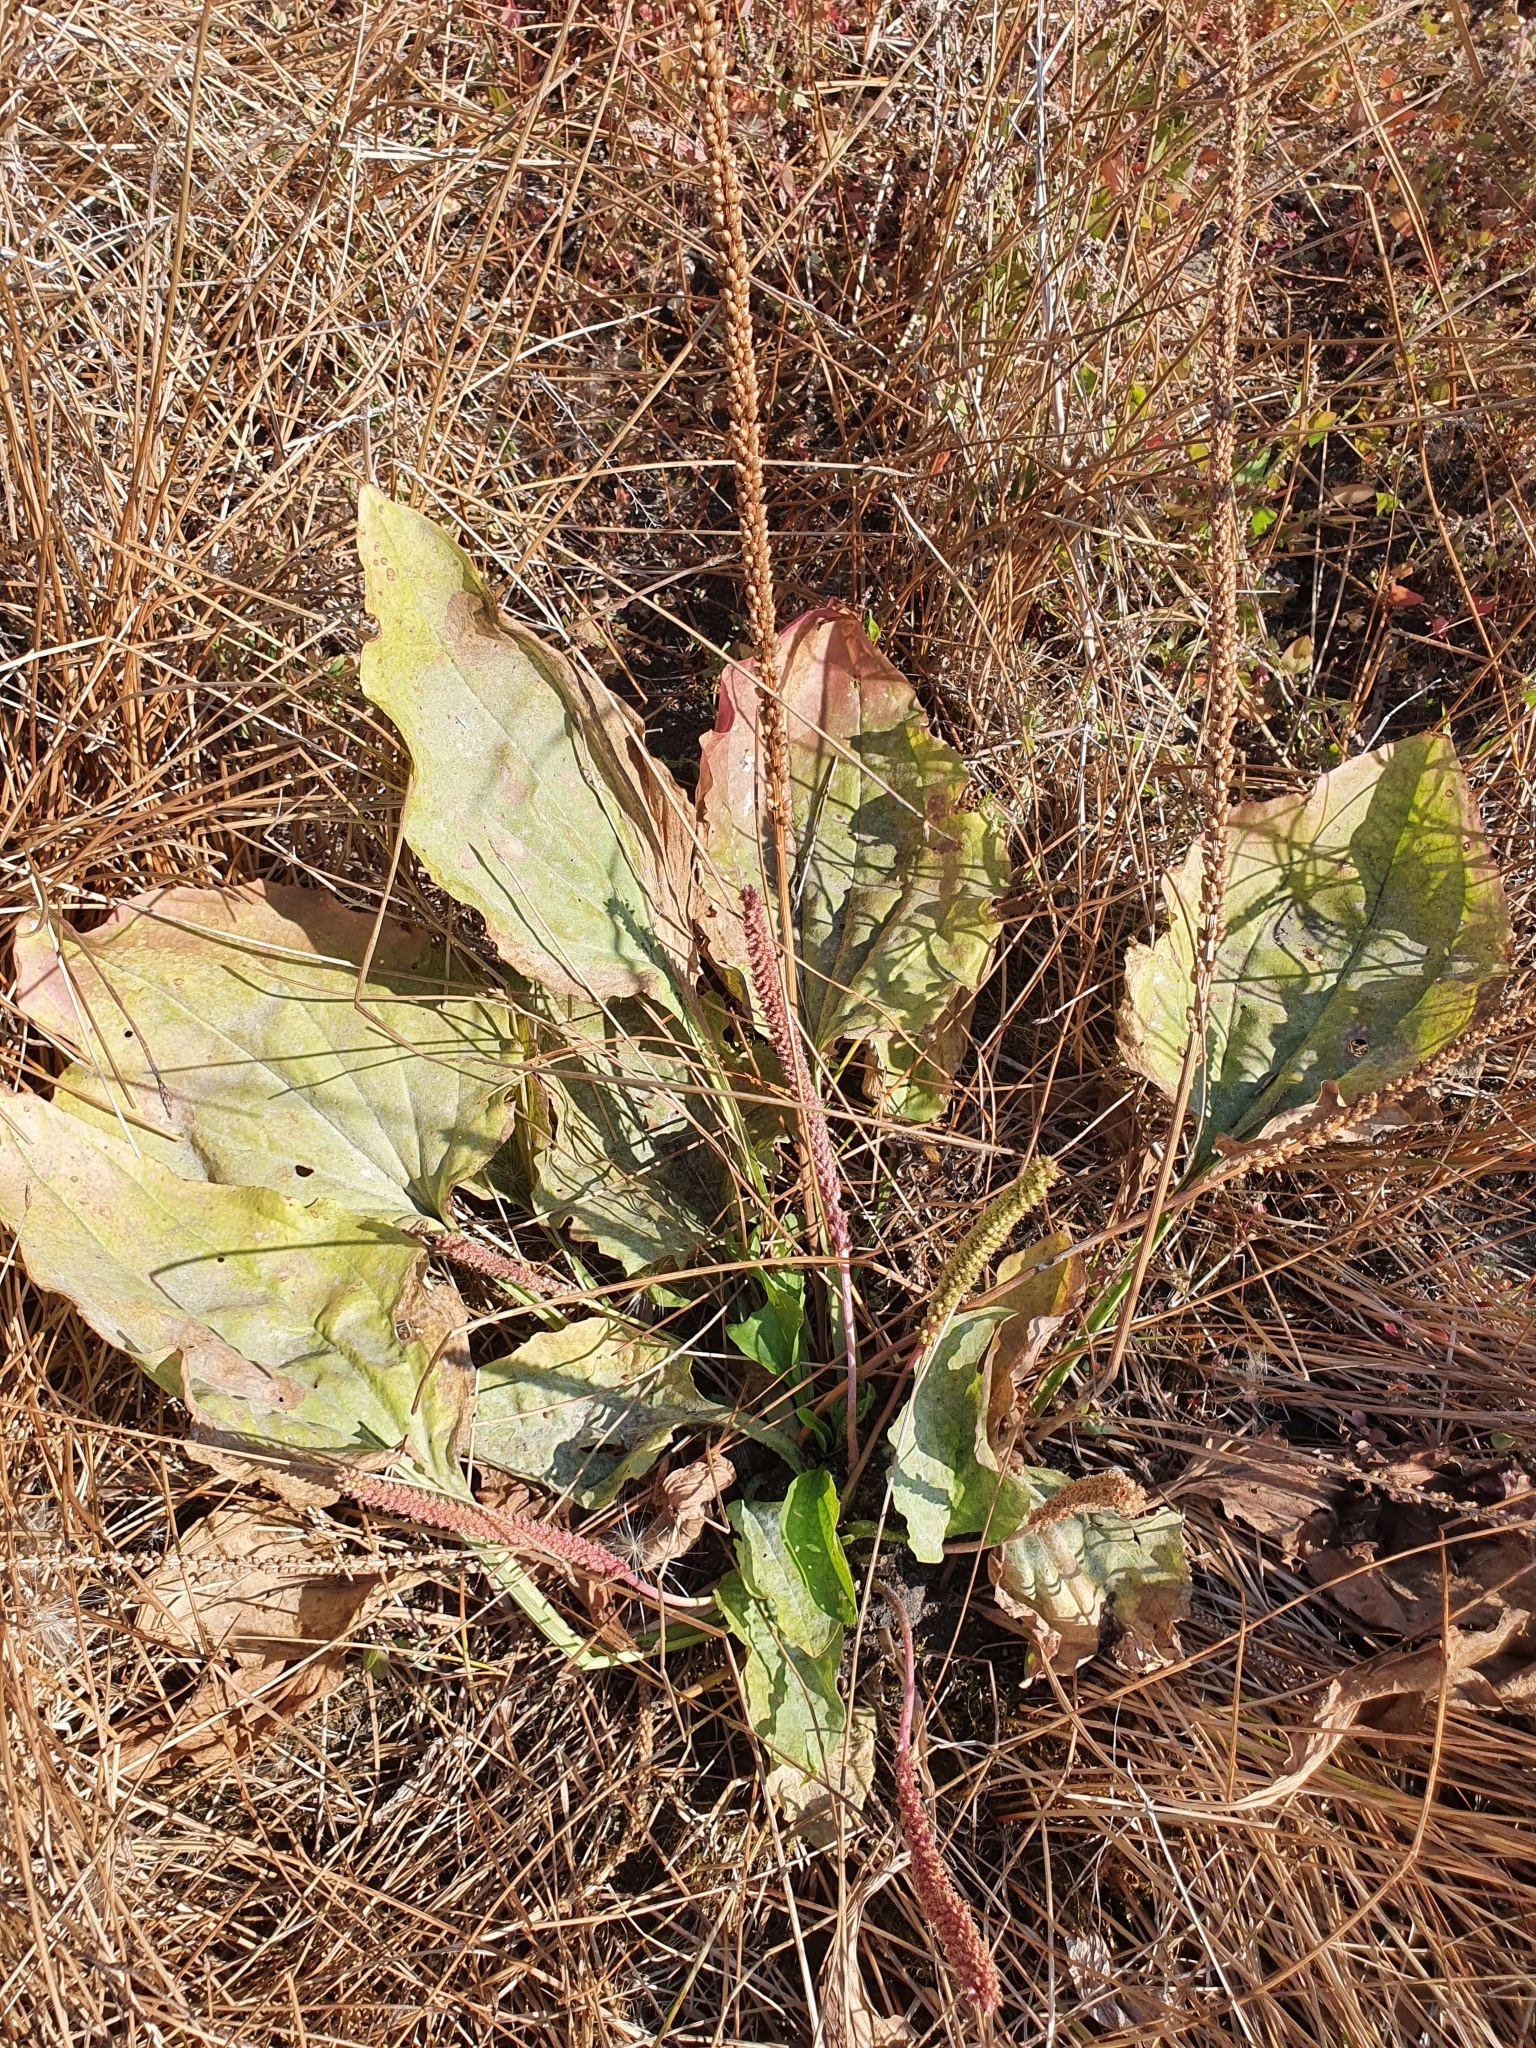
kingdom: Plantae
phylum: Tracheophyta
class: Magnoliopsida
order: Lamiales
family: Plantaginaceae
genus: Plantago
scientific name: Plantago major
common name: Common plantain
